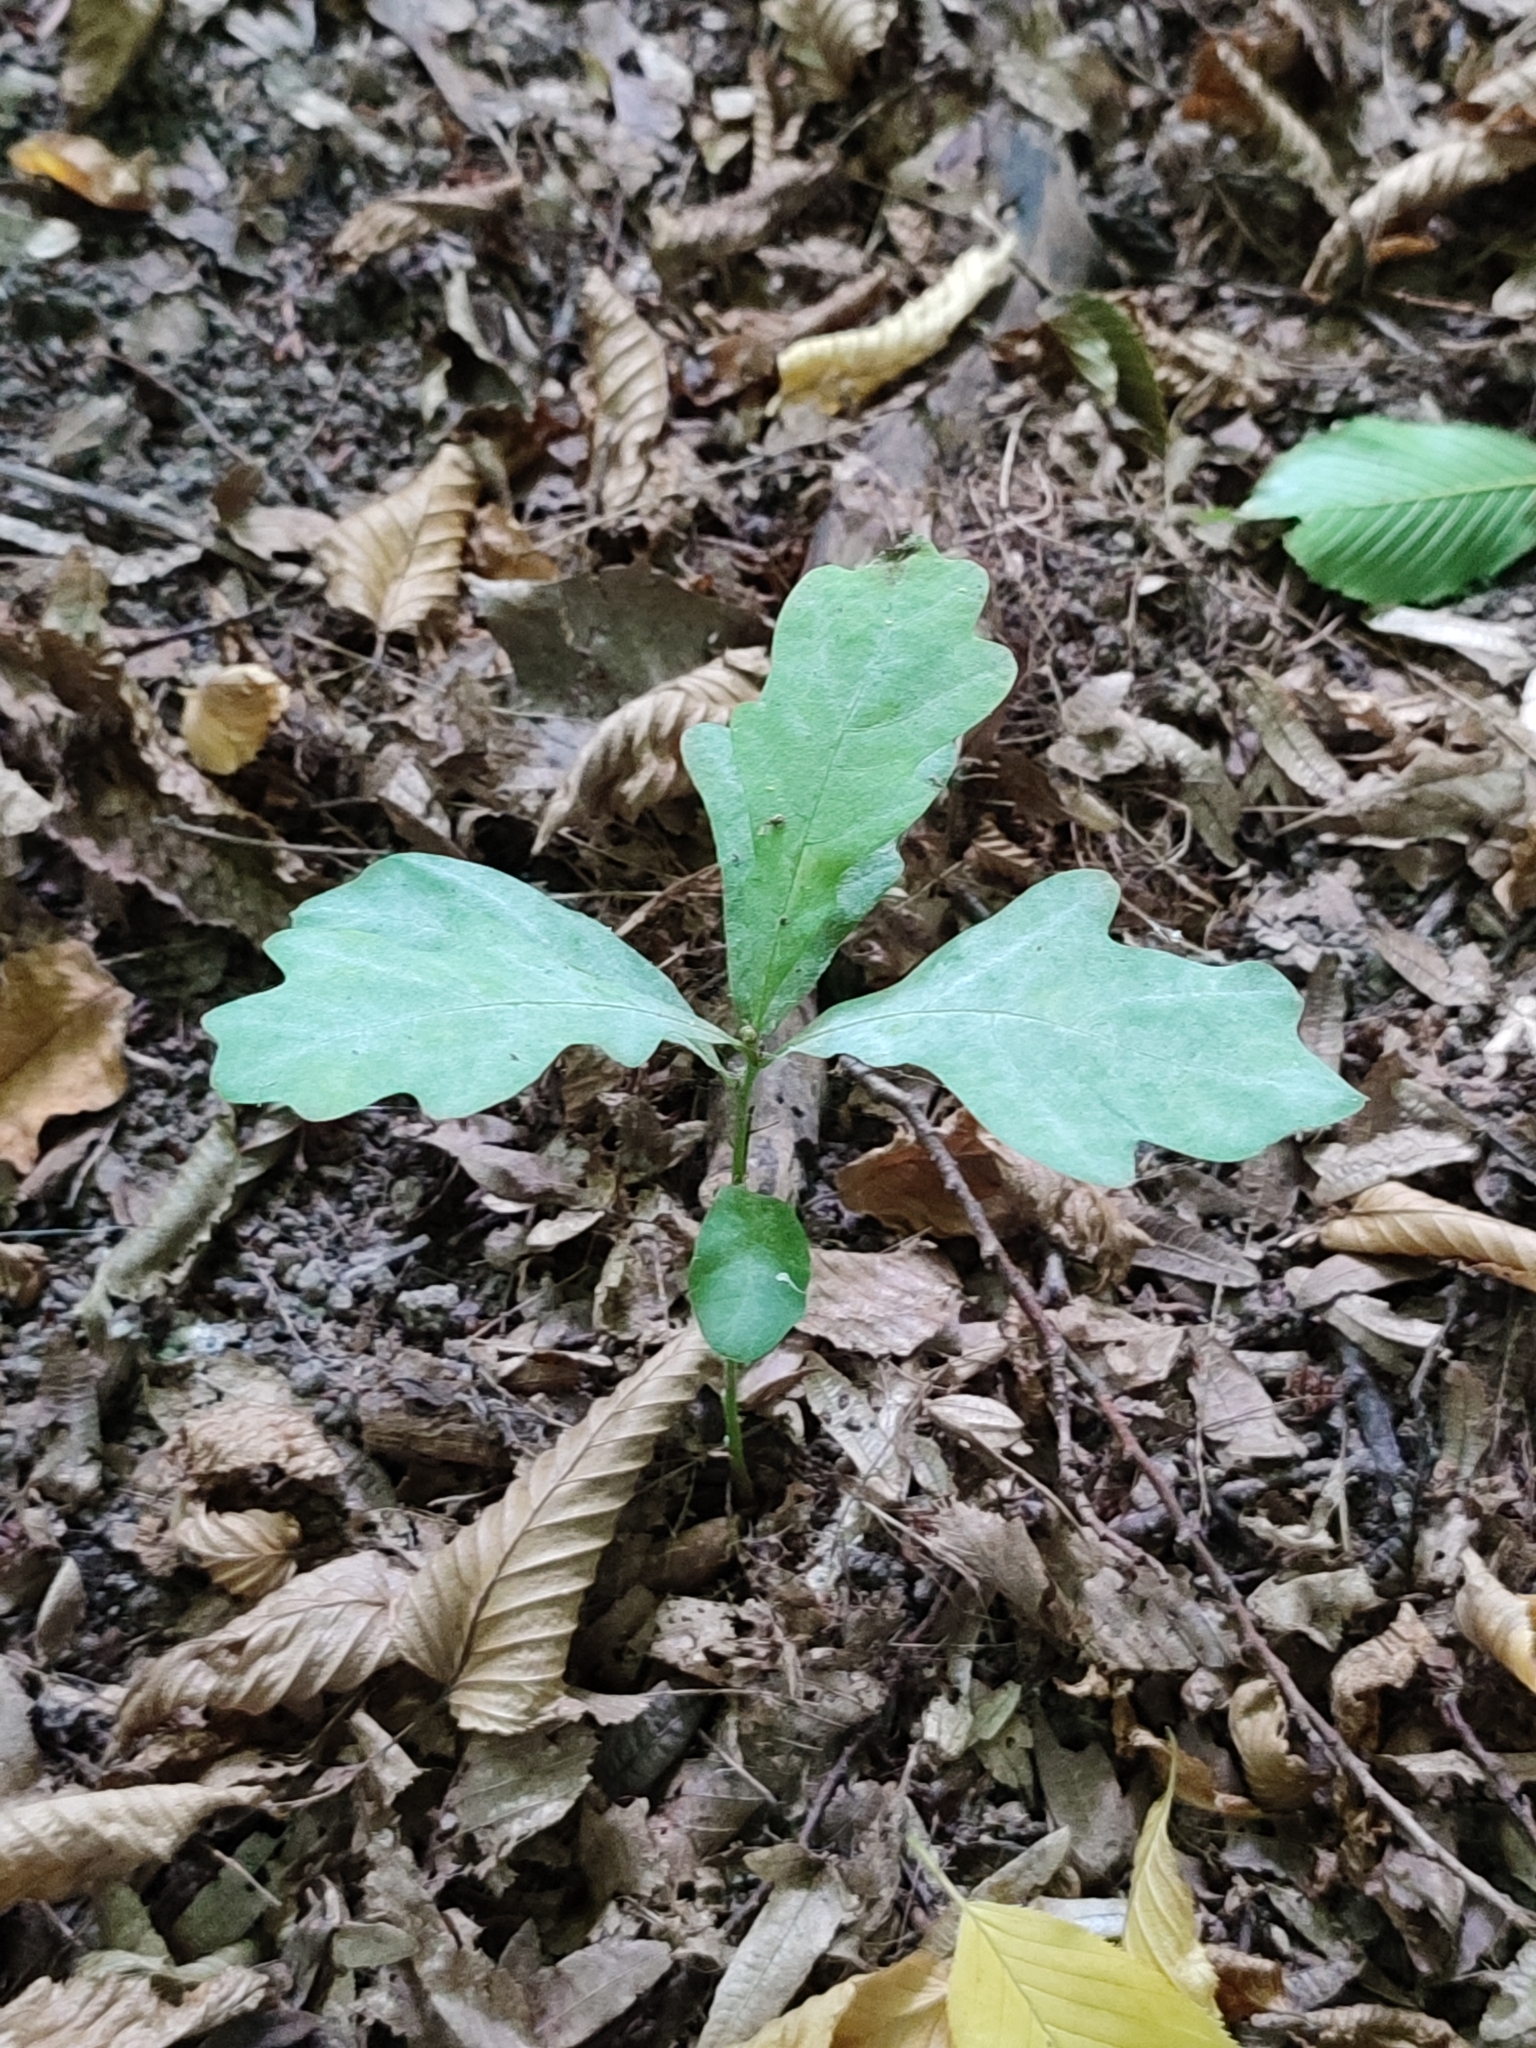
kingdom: Plantae
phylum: Tracheophyta
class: Magnoliopsida
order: Fagales
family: Fagaceae
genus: Quercus
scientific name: Quercus robur
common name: Pedunculate oak
